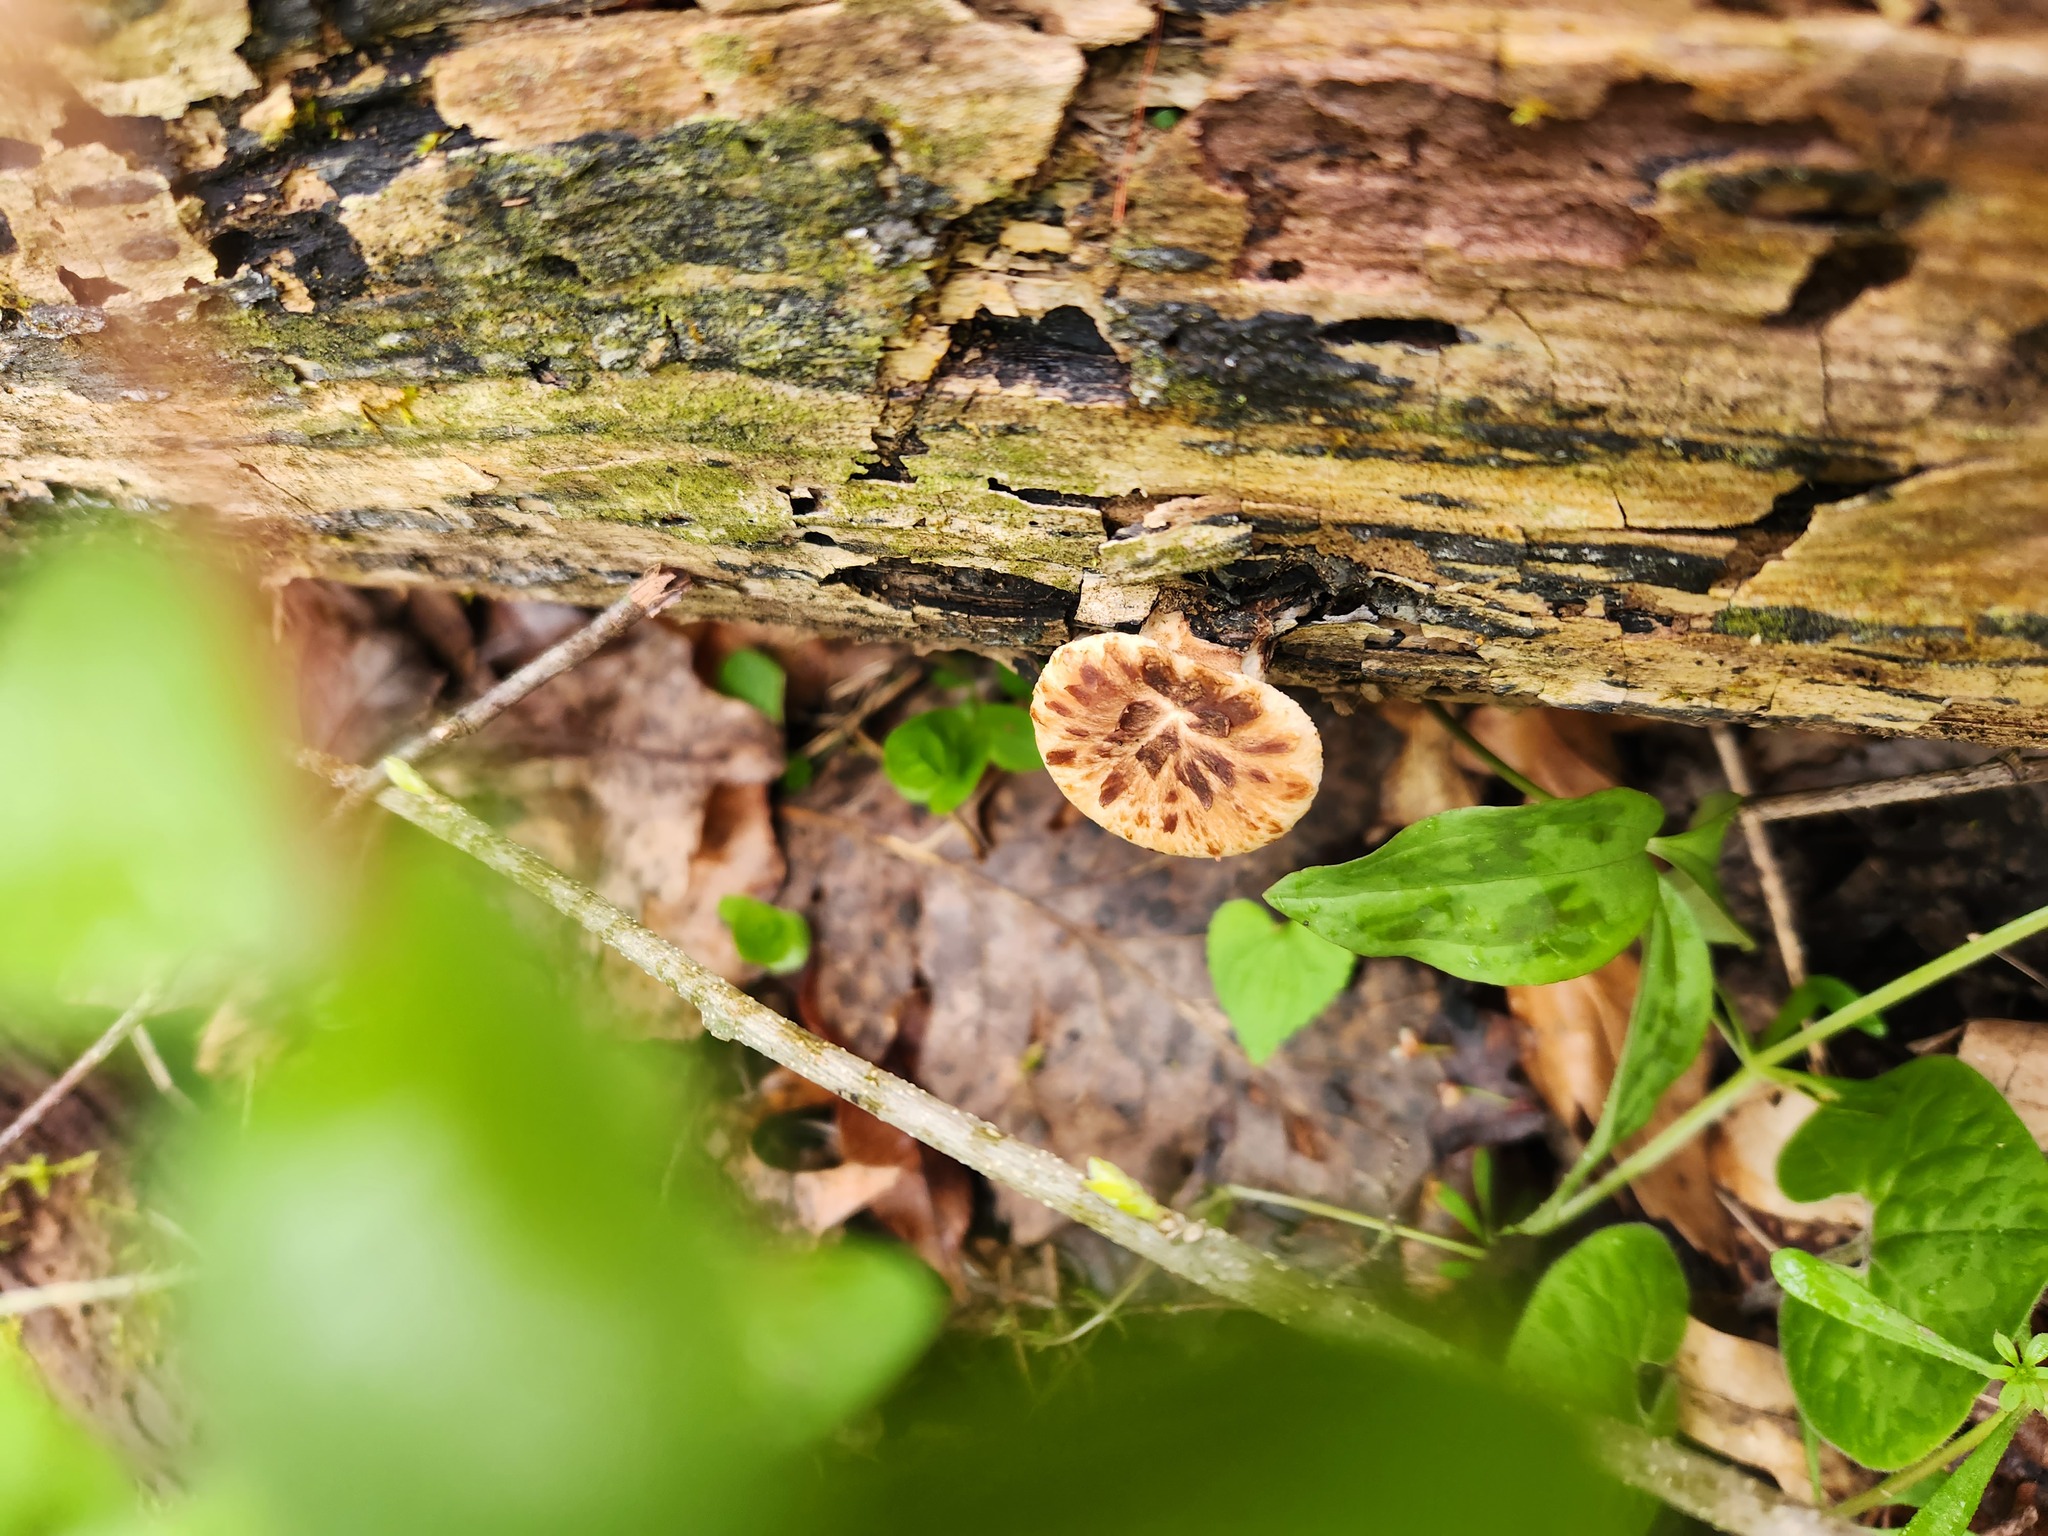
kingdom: Fungi
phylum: Basidiomycota
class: Agaricomycetes
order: Polyporales
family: Polyporaceae
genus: Cerioporus
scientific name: Cerioporus squamosus
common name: Dryad's saddle
